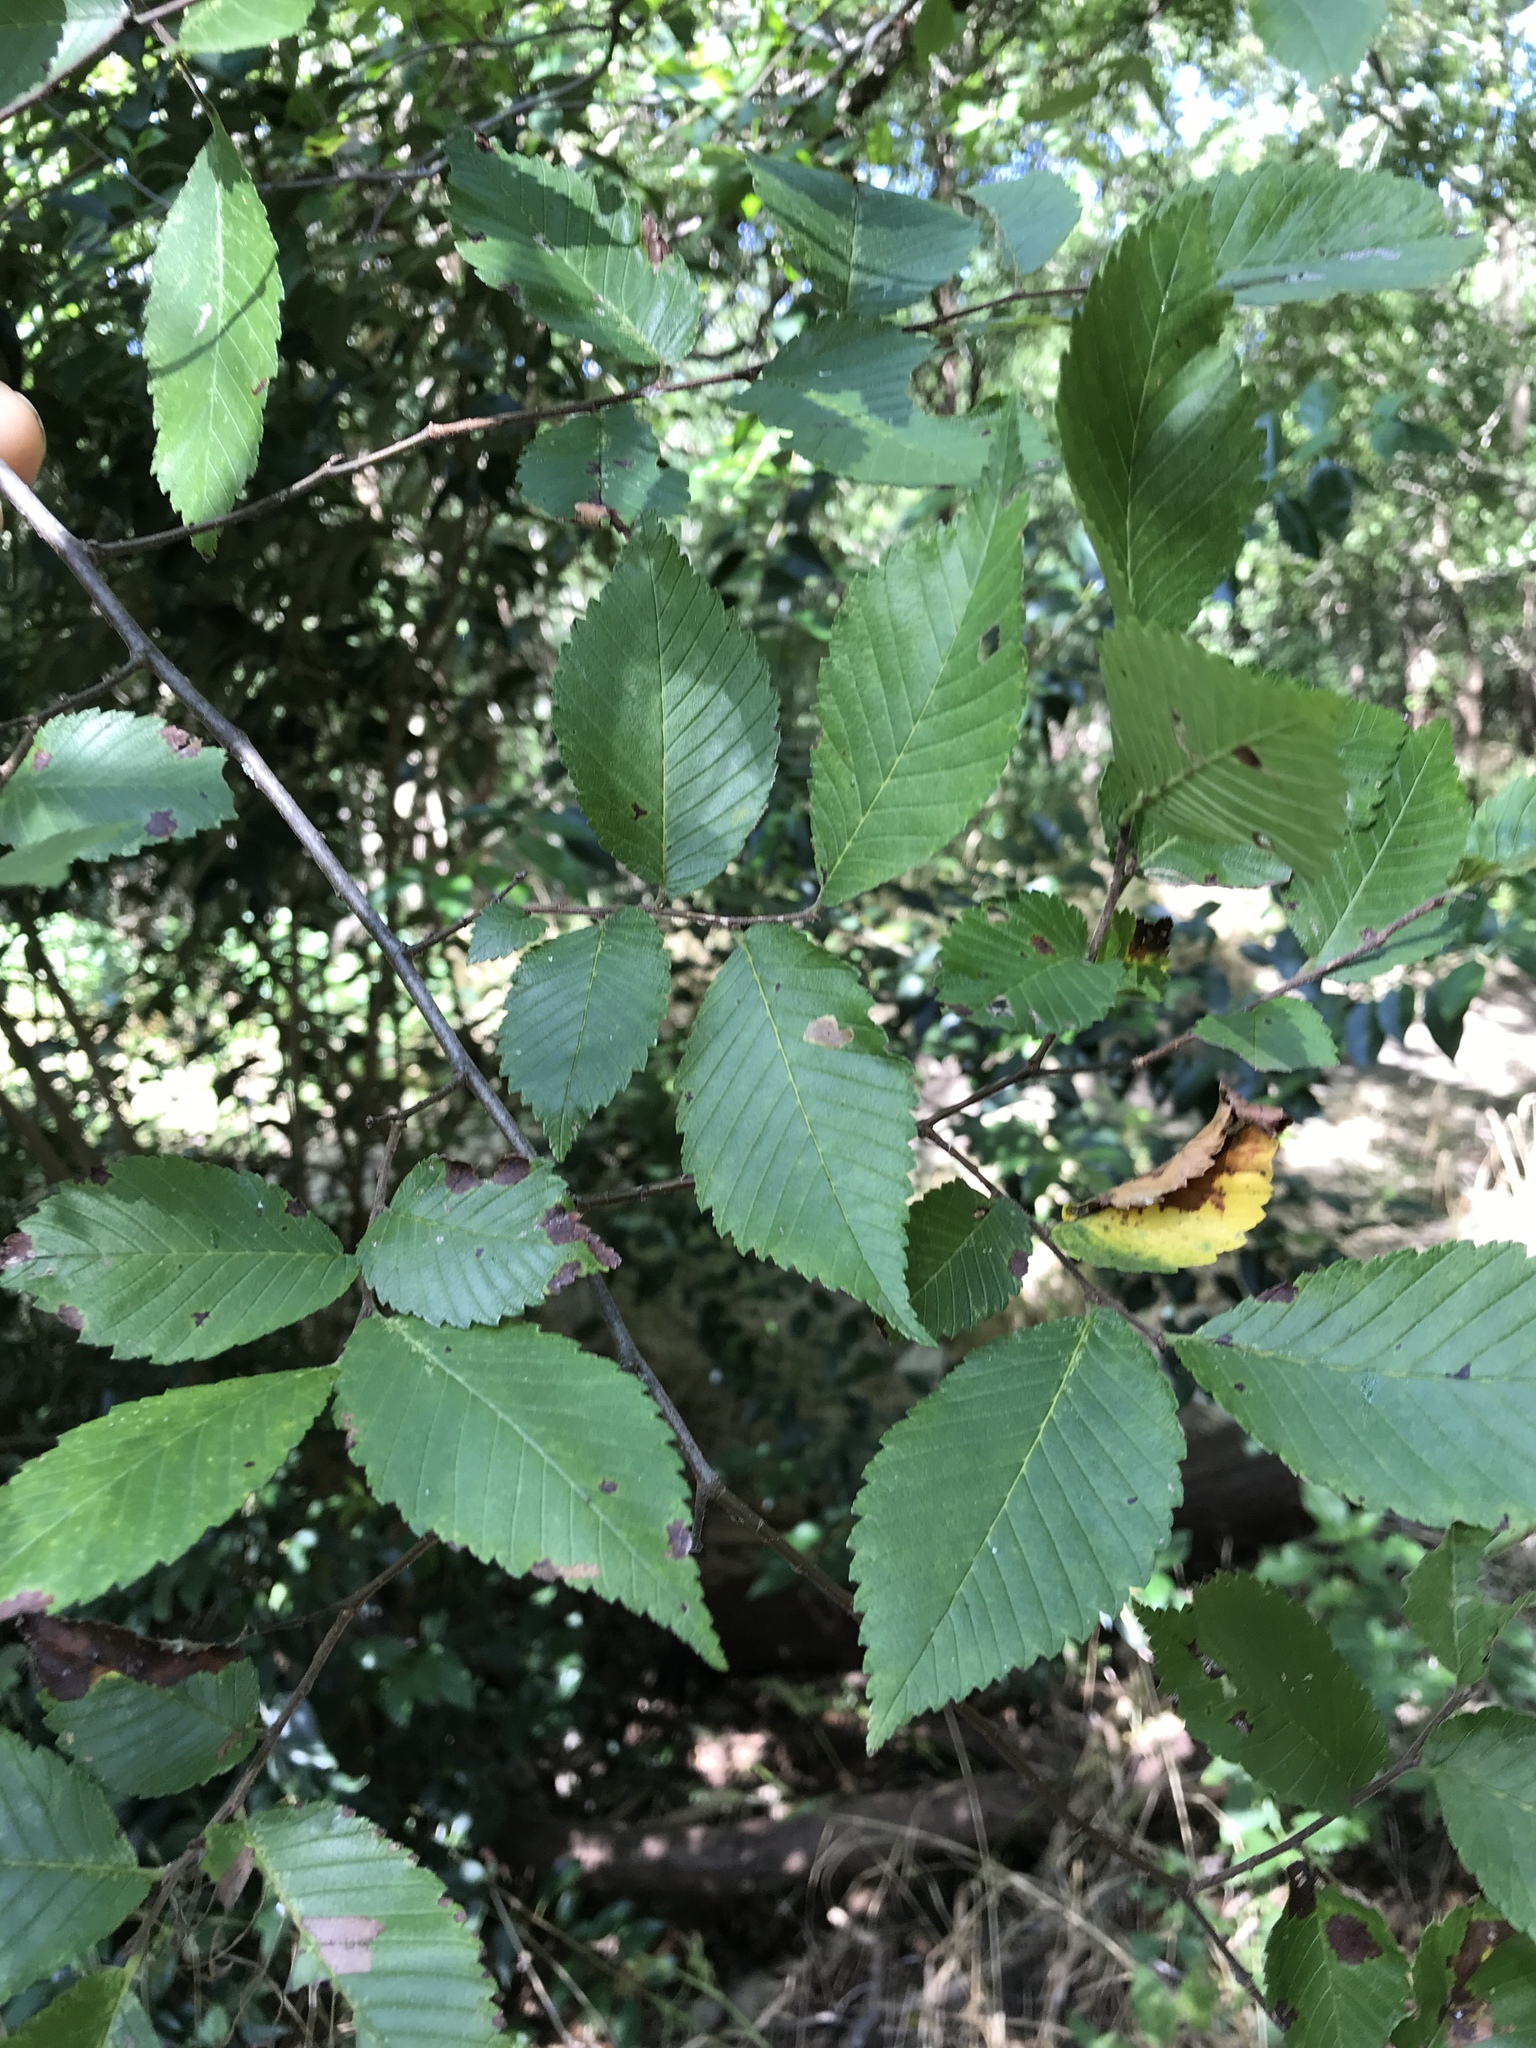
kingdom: Plantae
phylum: Tracheophyta
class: Magnoliopsida
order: Rosales
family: Ulmaceae
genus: Ulmus
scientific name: Ulmus americana
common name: American elm
